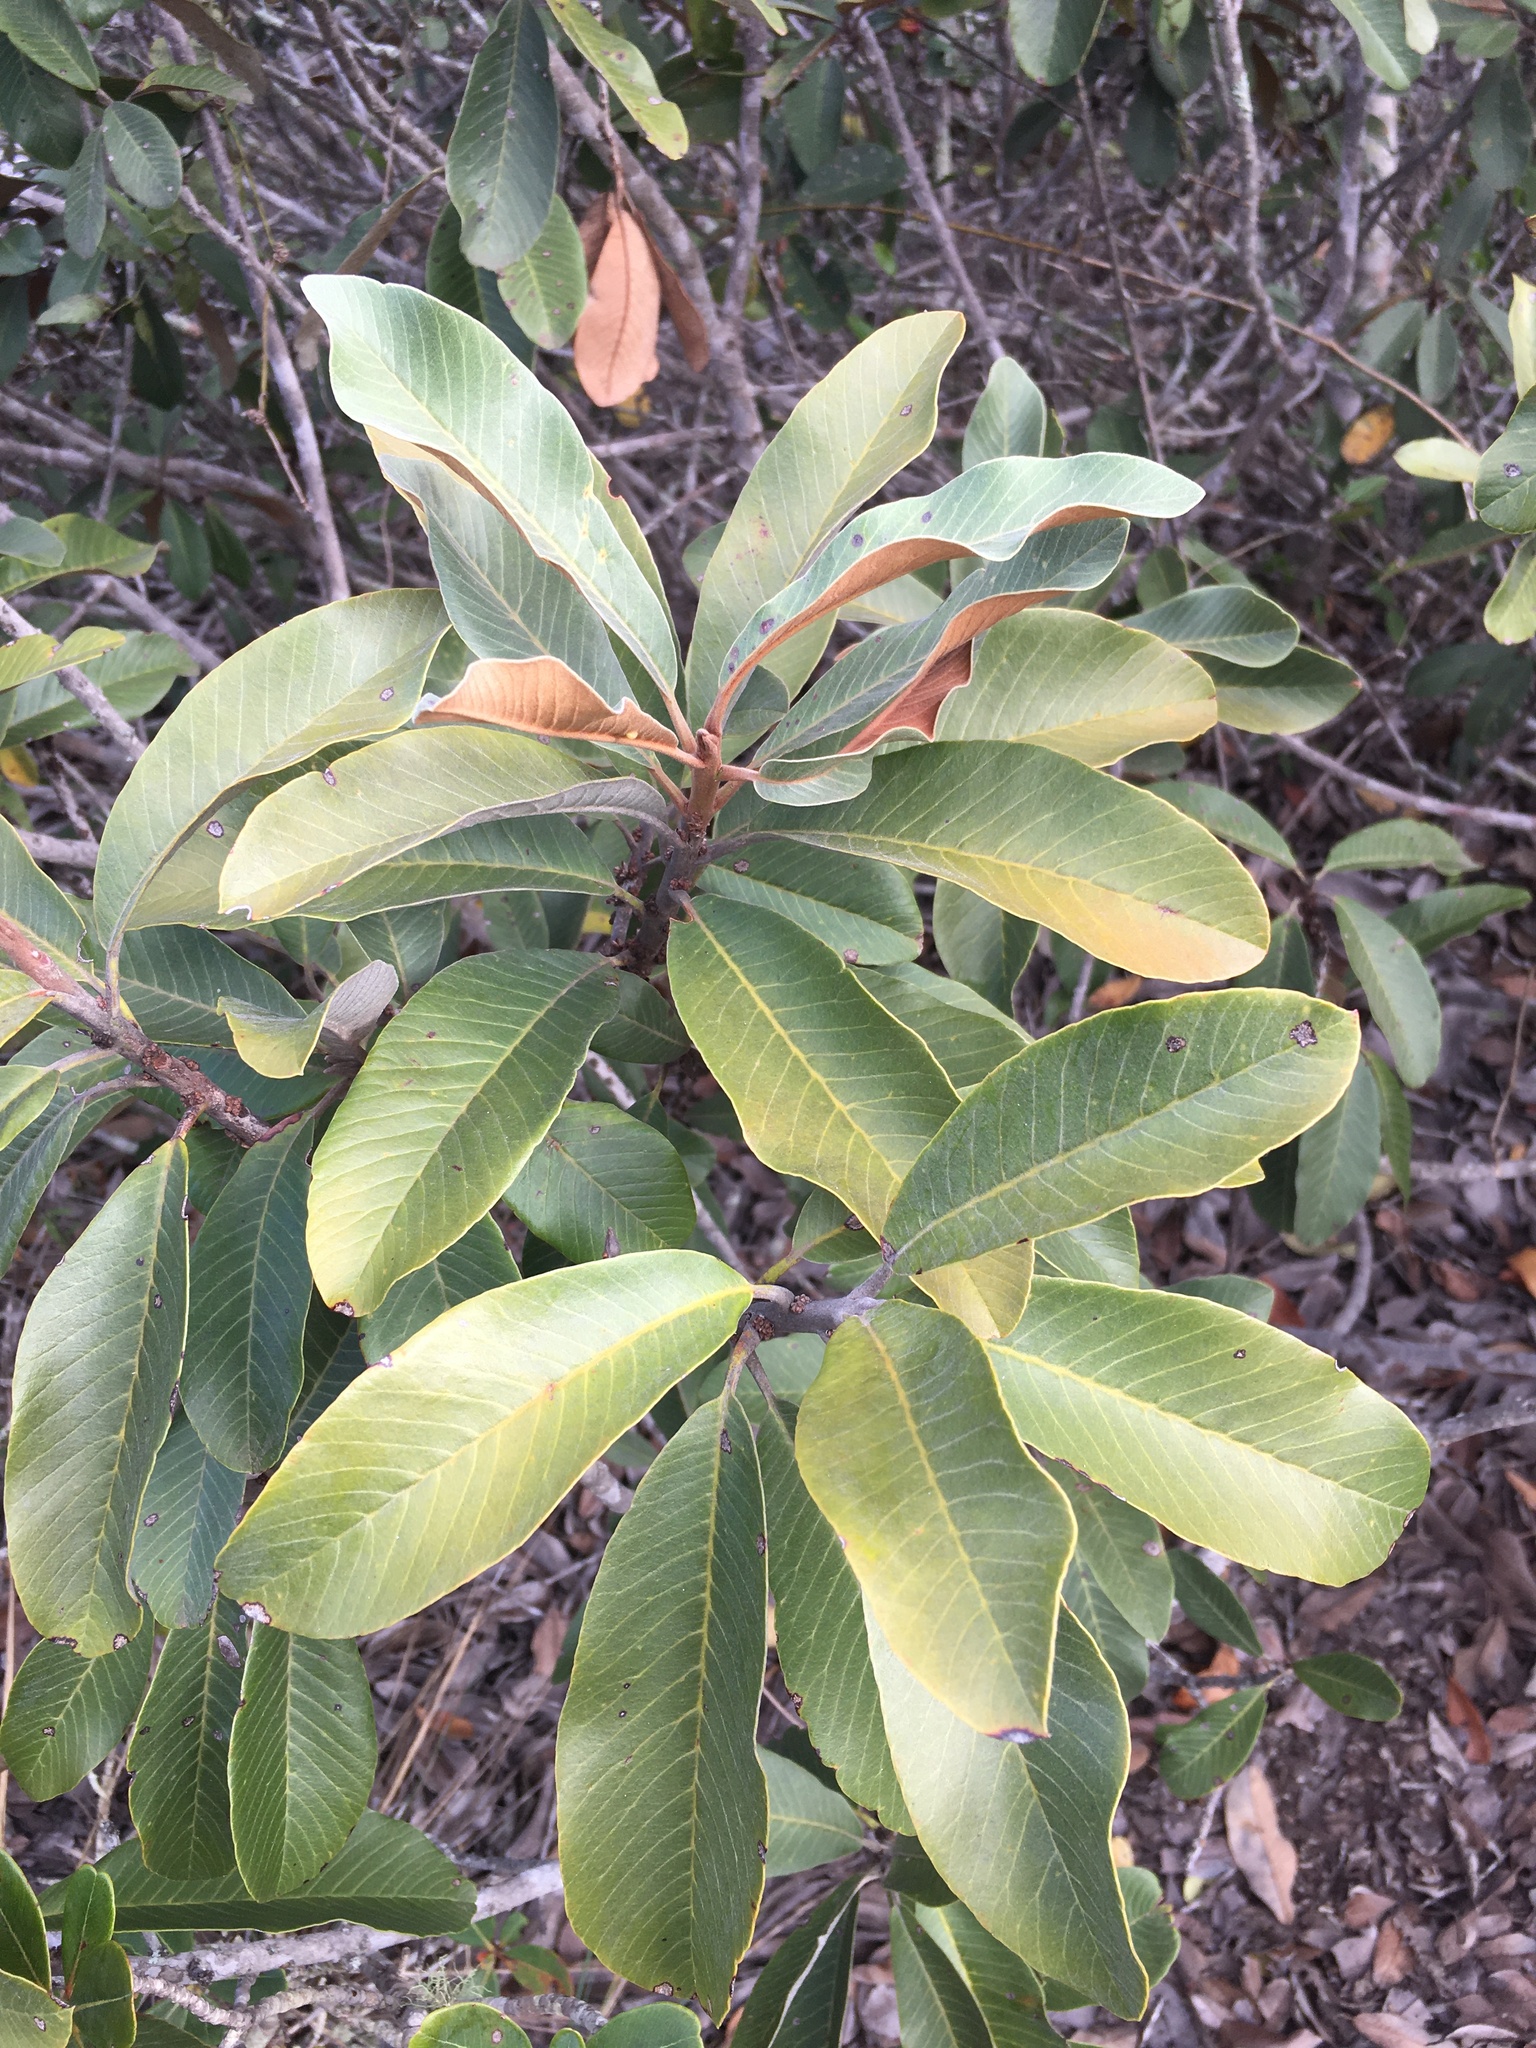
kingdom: Plantae
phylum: Tracheophyta
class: Magnoliopsida
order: Ericales
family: Sapotaceae
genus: Pouteria
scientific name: Pouteria subcaerulea
